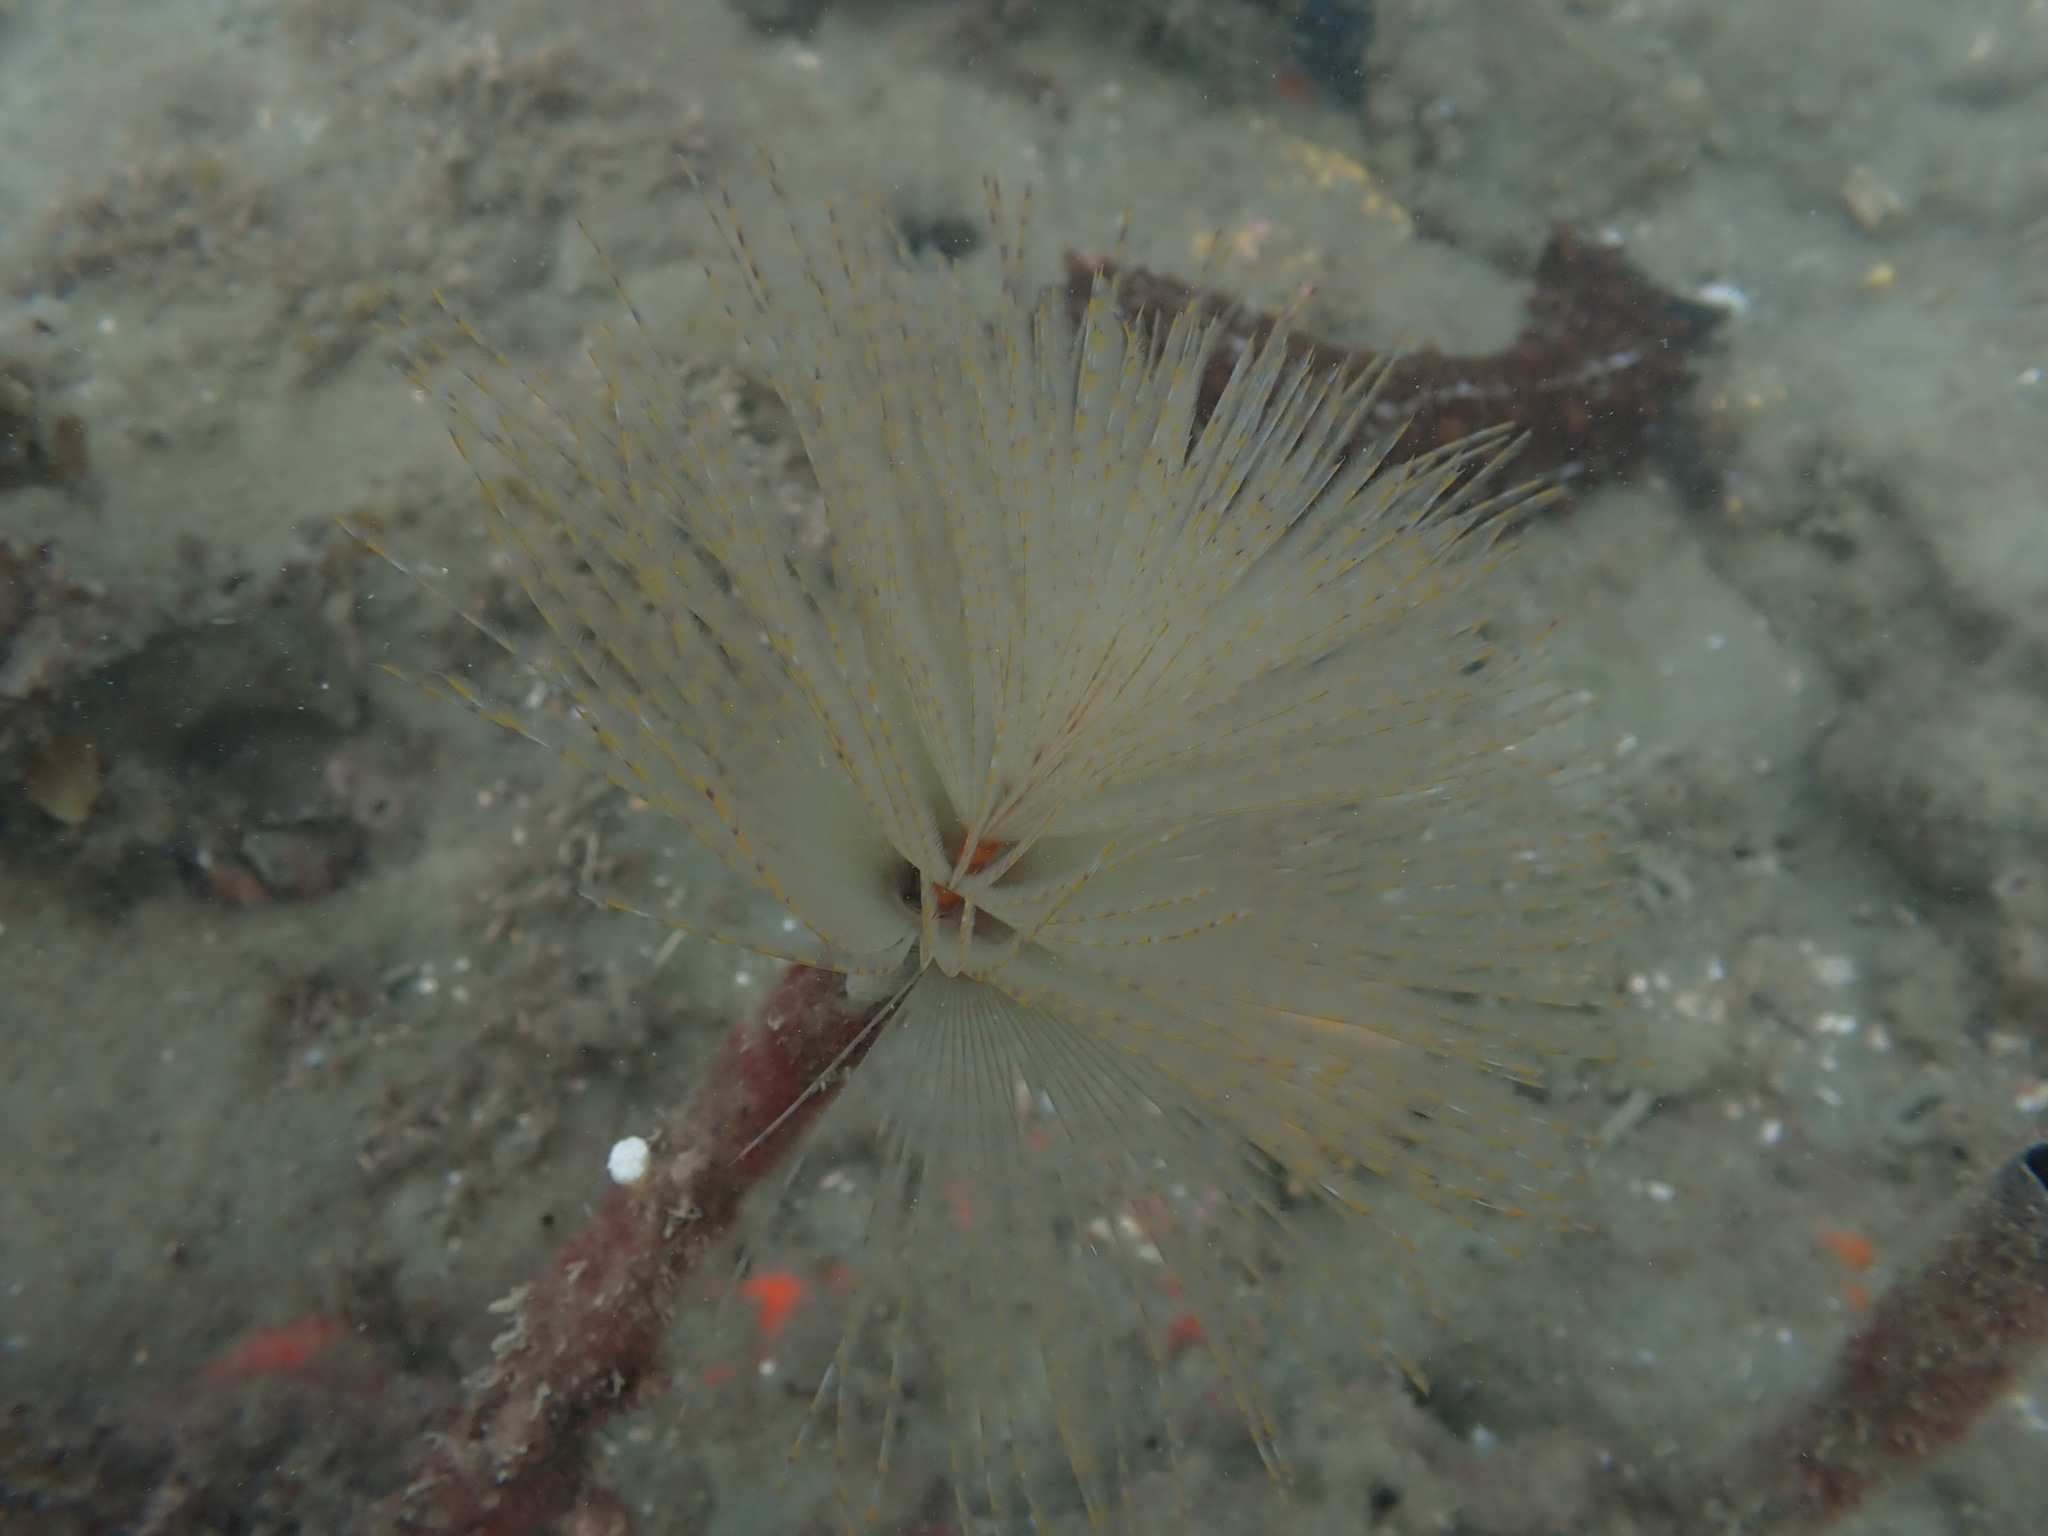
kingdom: Animalia
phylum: Annelida
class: Polychaeta
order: Sabellida
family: Sabellidae
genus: Sabella
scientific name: Sabella spallanzanii
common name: Feather duster worm
